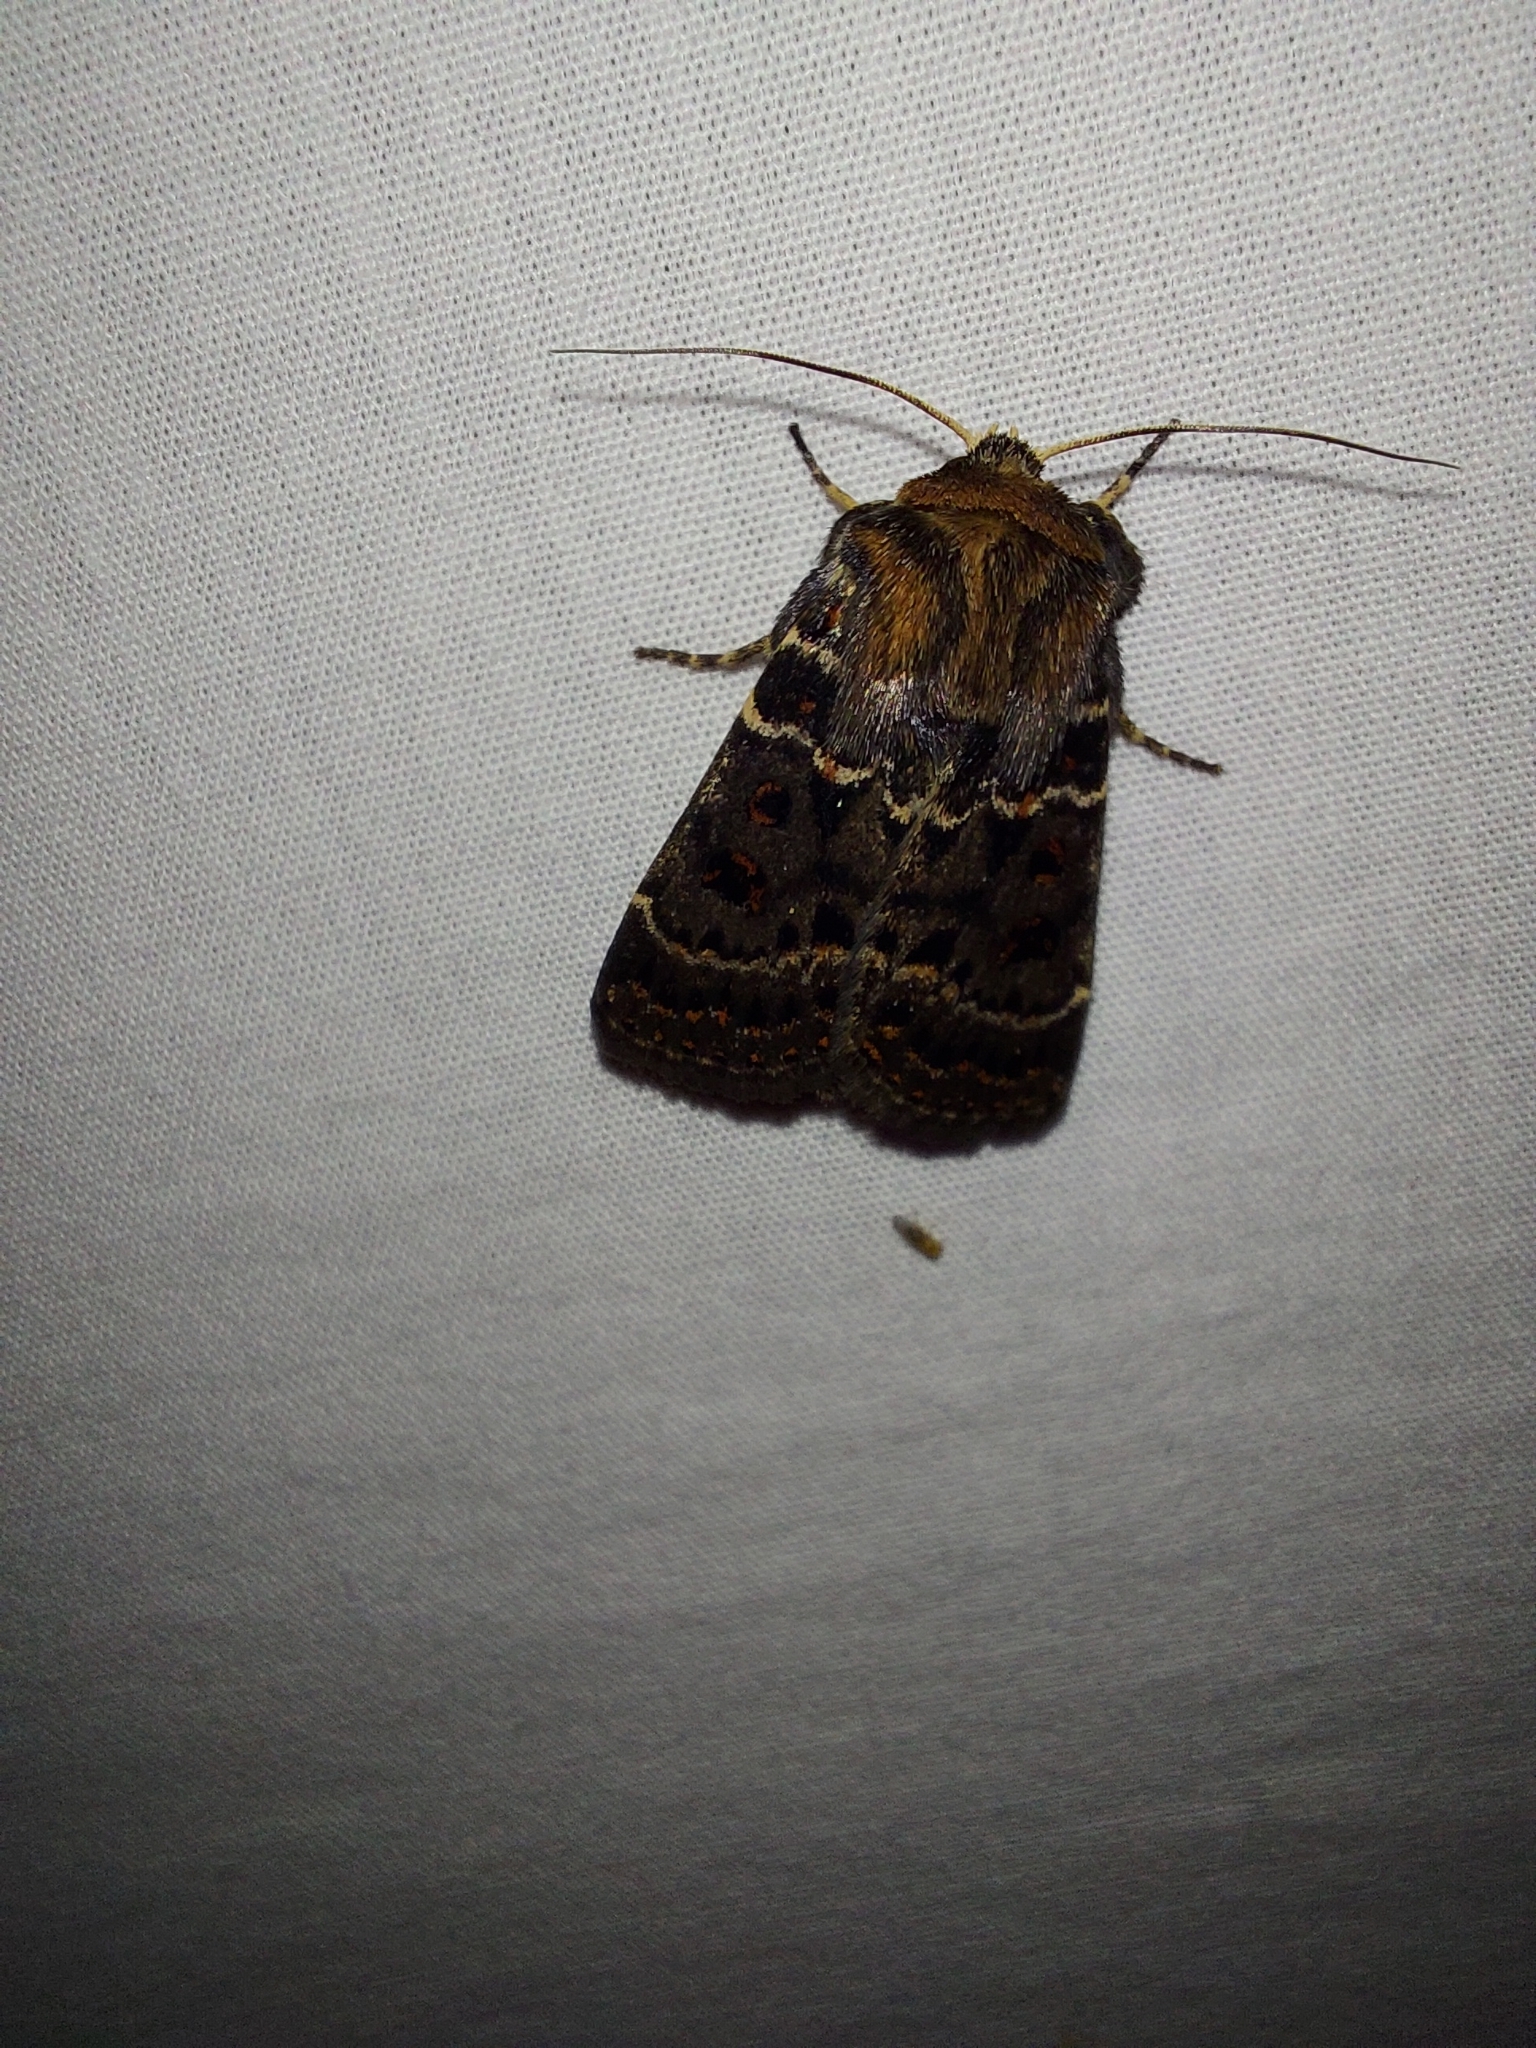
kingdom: Animalia
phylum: Arthropoda
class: Insecta
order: Lepidoptera
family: Noctuidae
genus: Proteuxoa
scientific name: Proteuxoa sanguinipuncta
